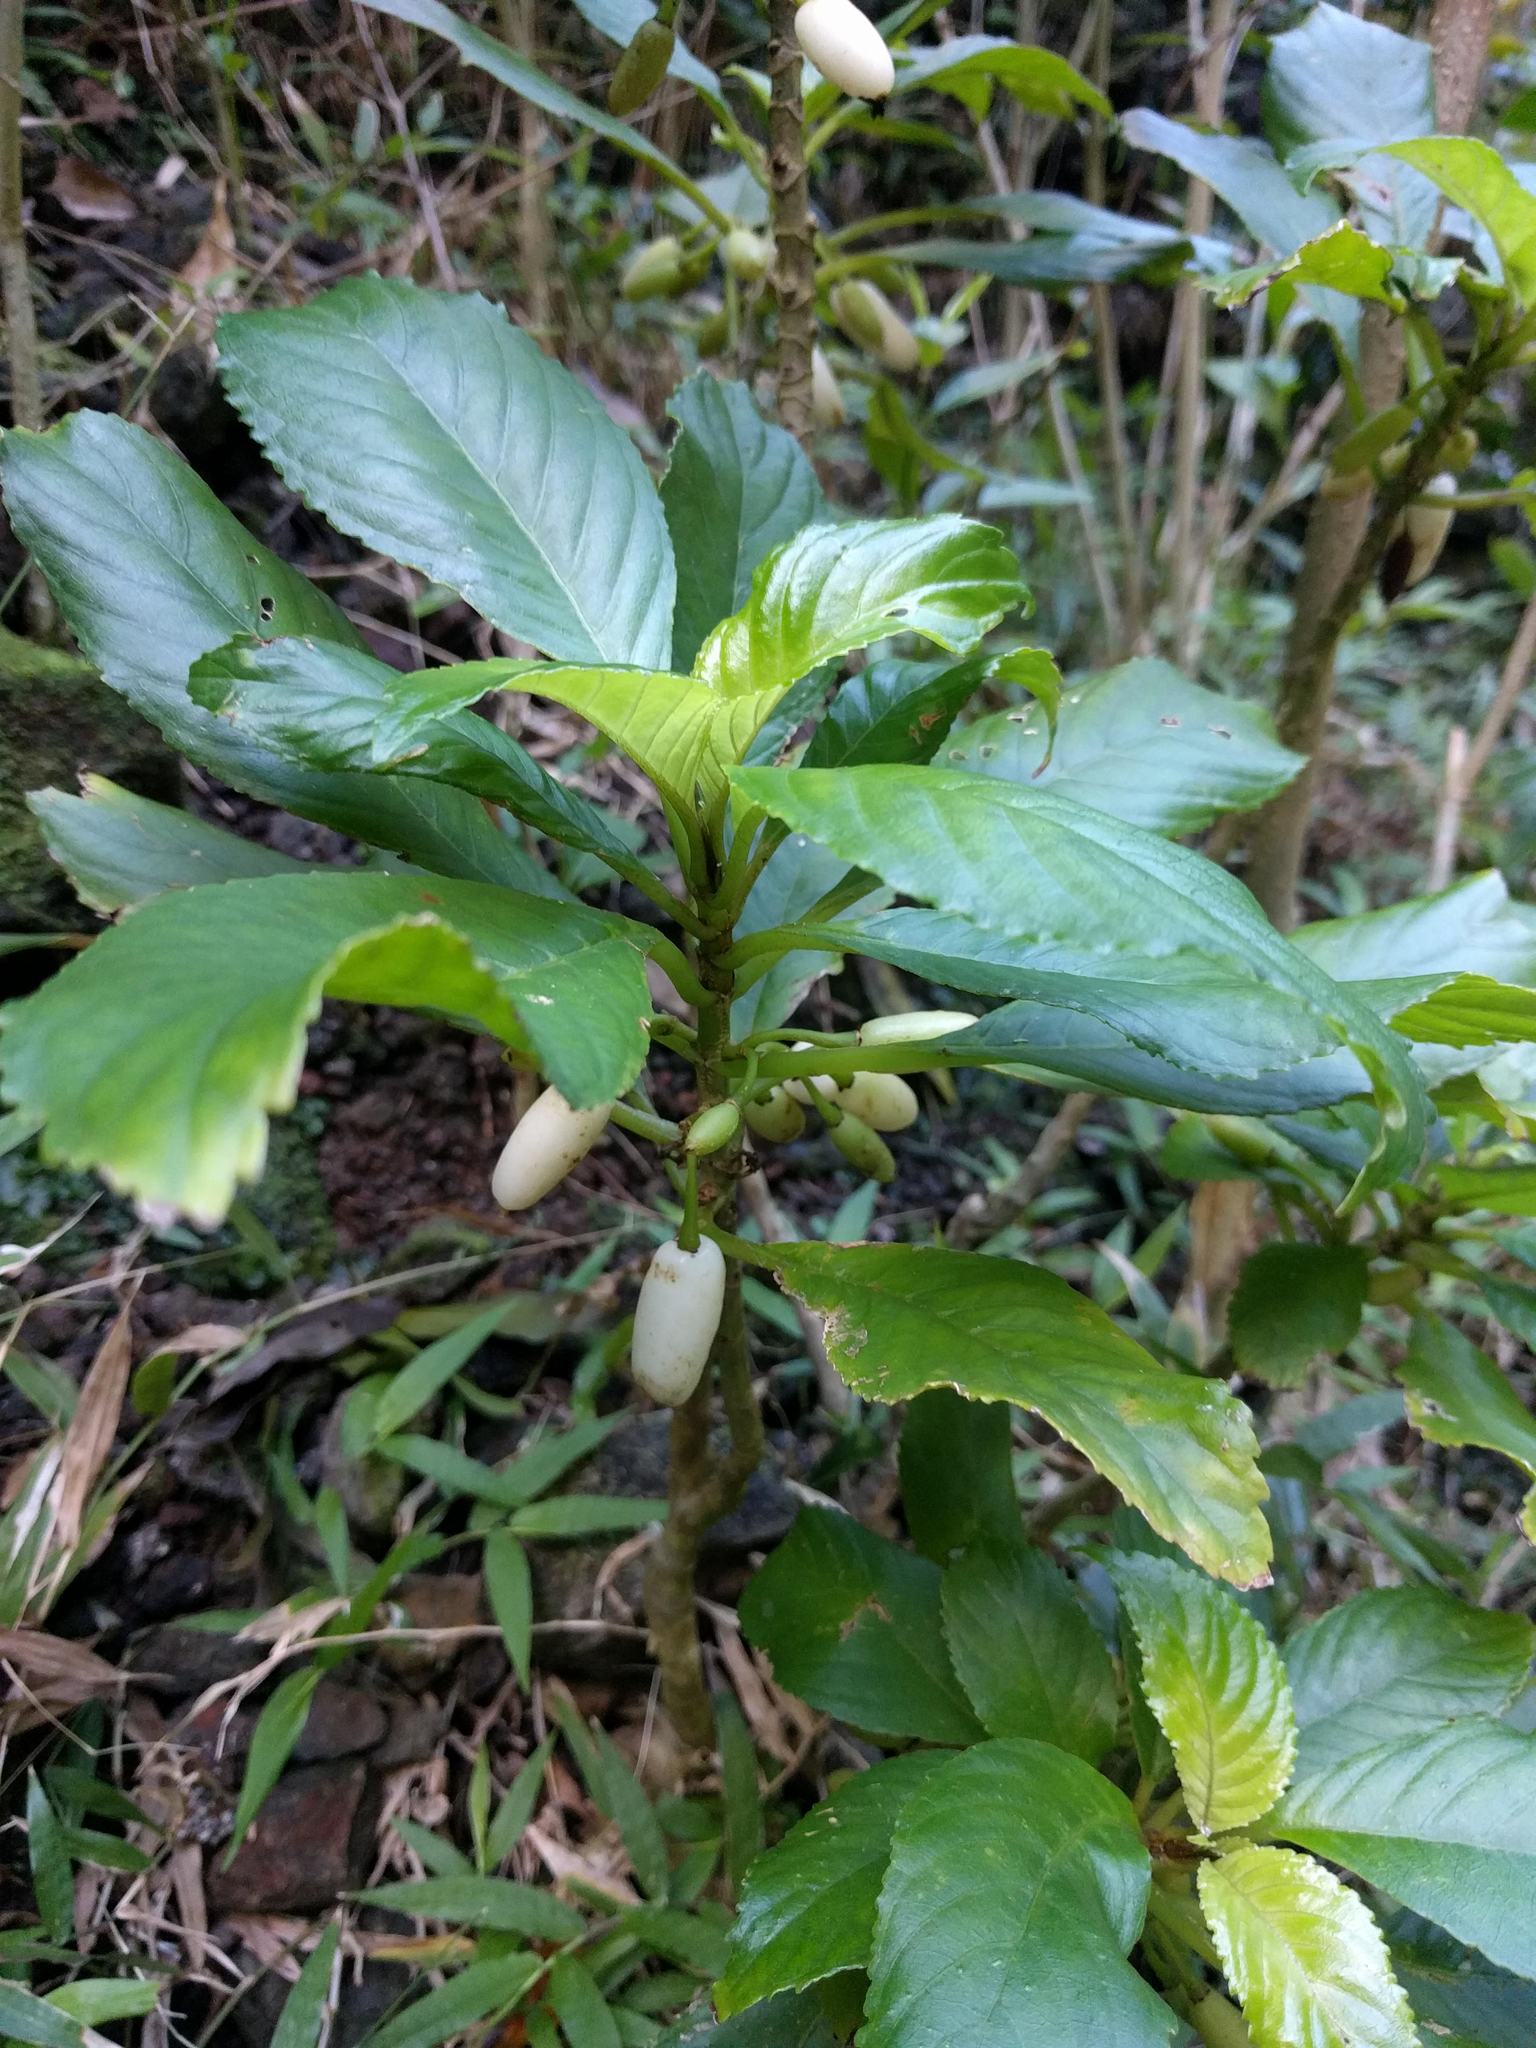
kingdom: Plantae
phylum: Tracheophyta
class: Magnoliopsida
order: Lamiales
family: Gesneriaceae
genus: Cyrtandra
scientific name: Cyrtandra grandiflora
